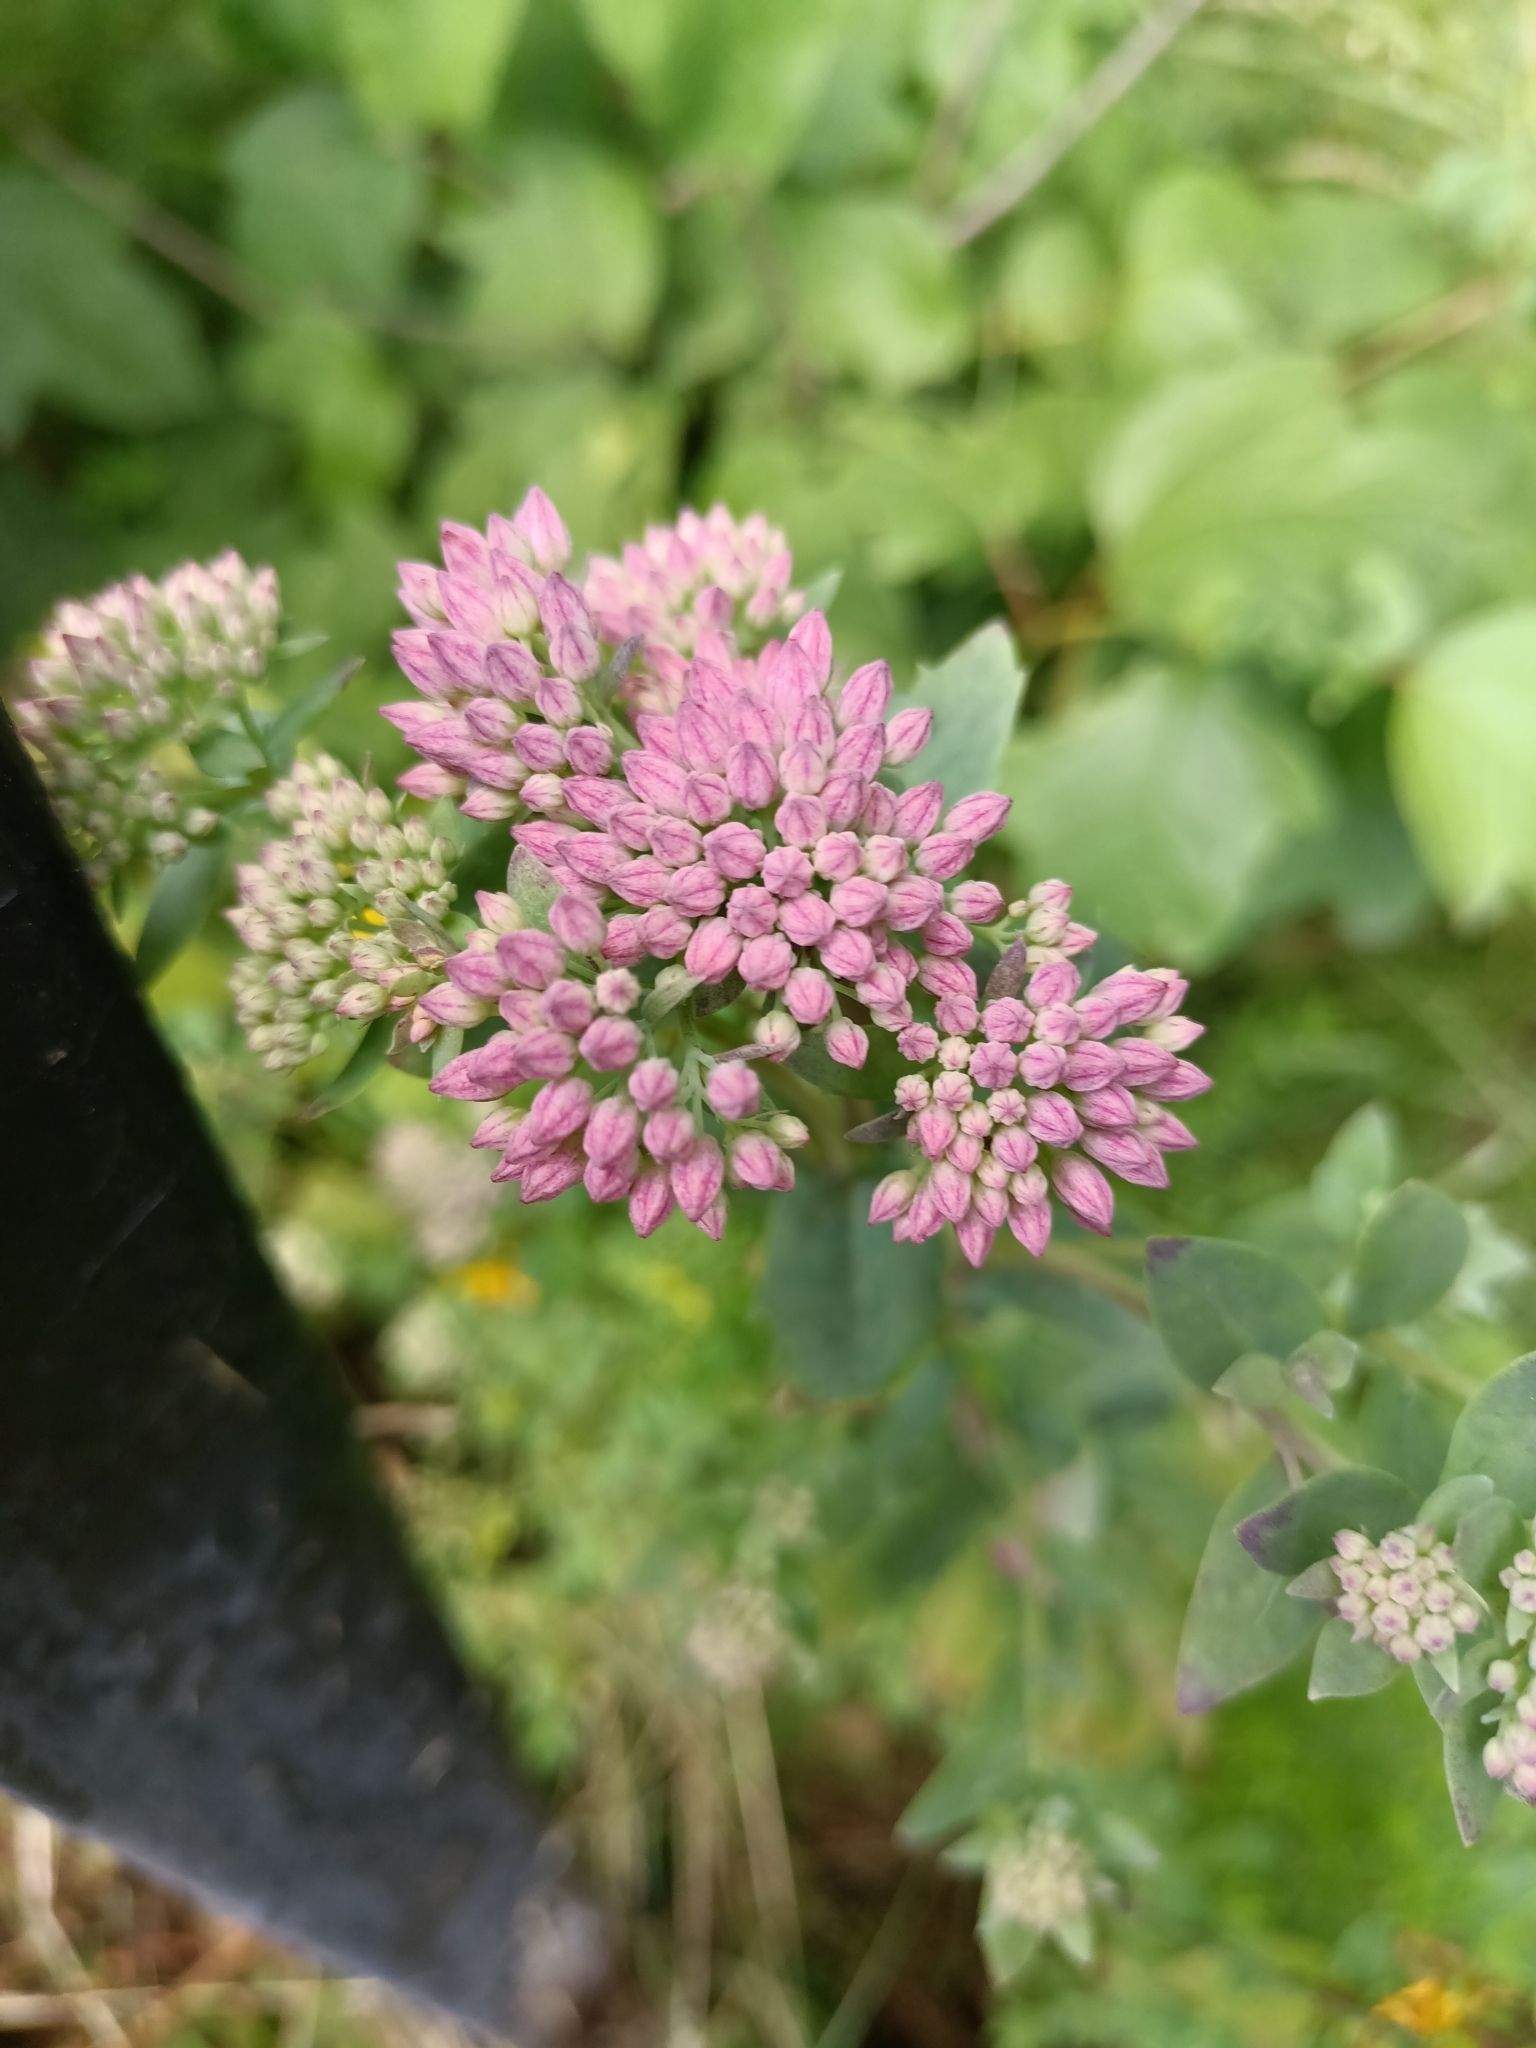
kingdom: Plantae
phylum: Tracheophyta
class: Magnoliopsida
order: Saxifragales
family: Crassulaceae
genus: Hylotelephium
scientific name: Hylotelephium telephium
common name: Live-forever
